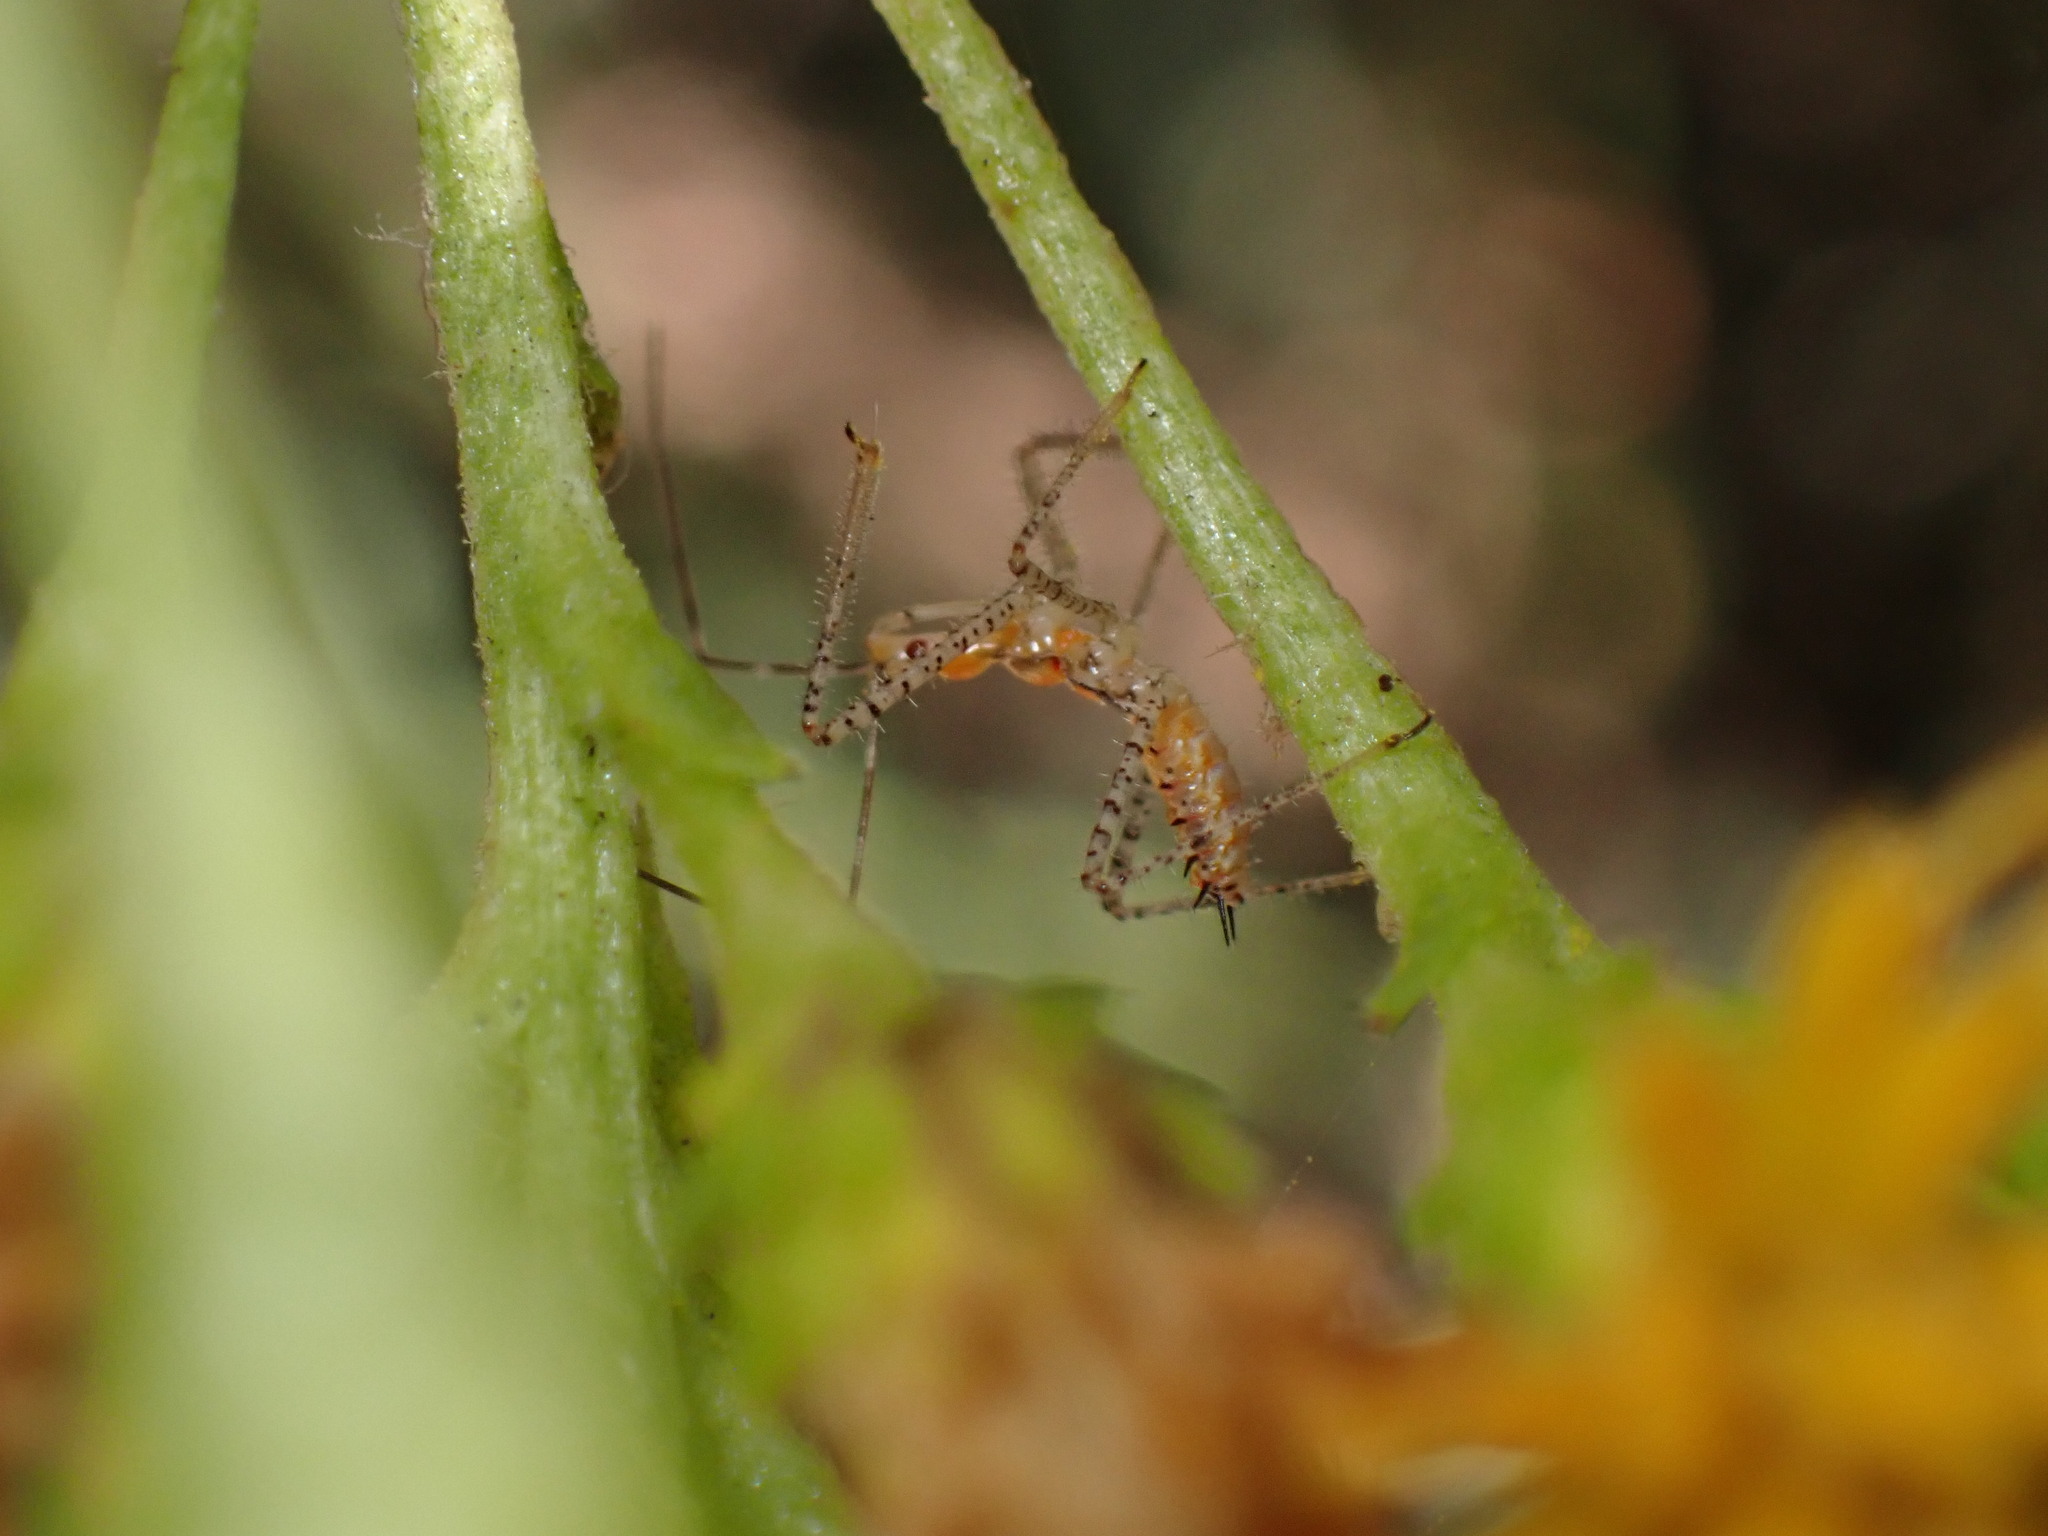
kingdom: Animalia
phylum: Arthropoda
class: Insecta
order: Hemiptera
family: Reduviidae
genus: Zelus
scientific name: Zelus renardii
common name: Assassin bug
